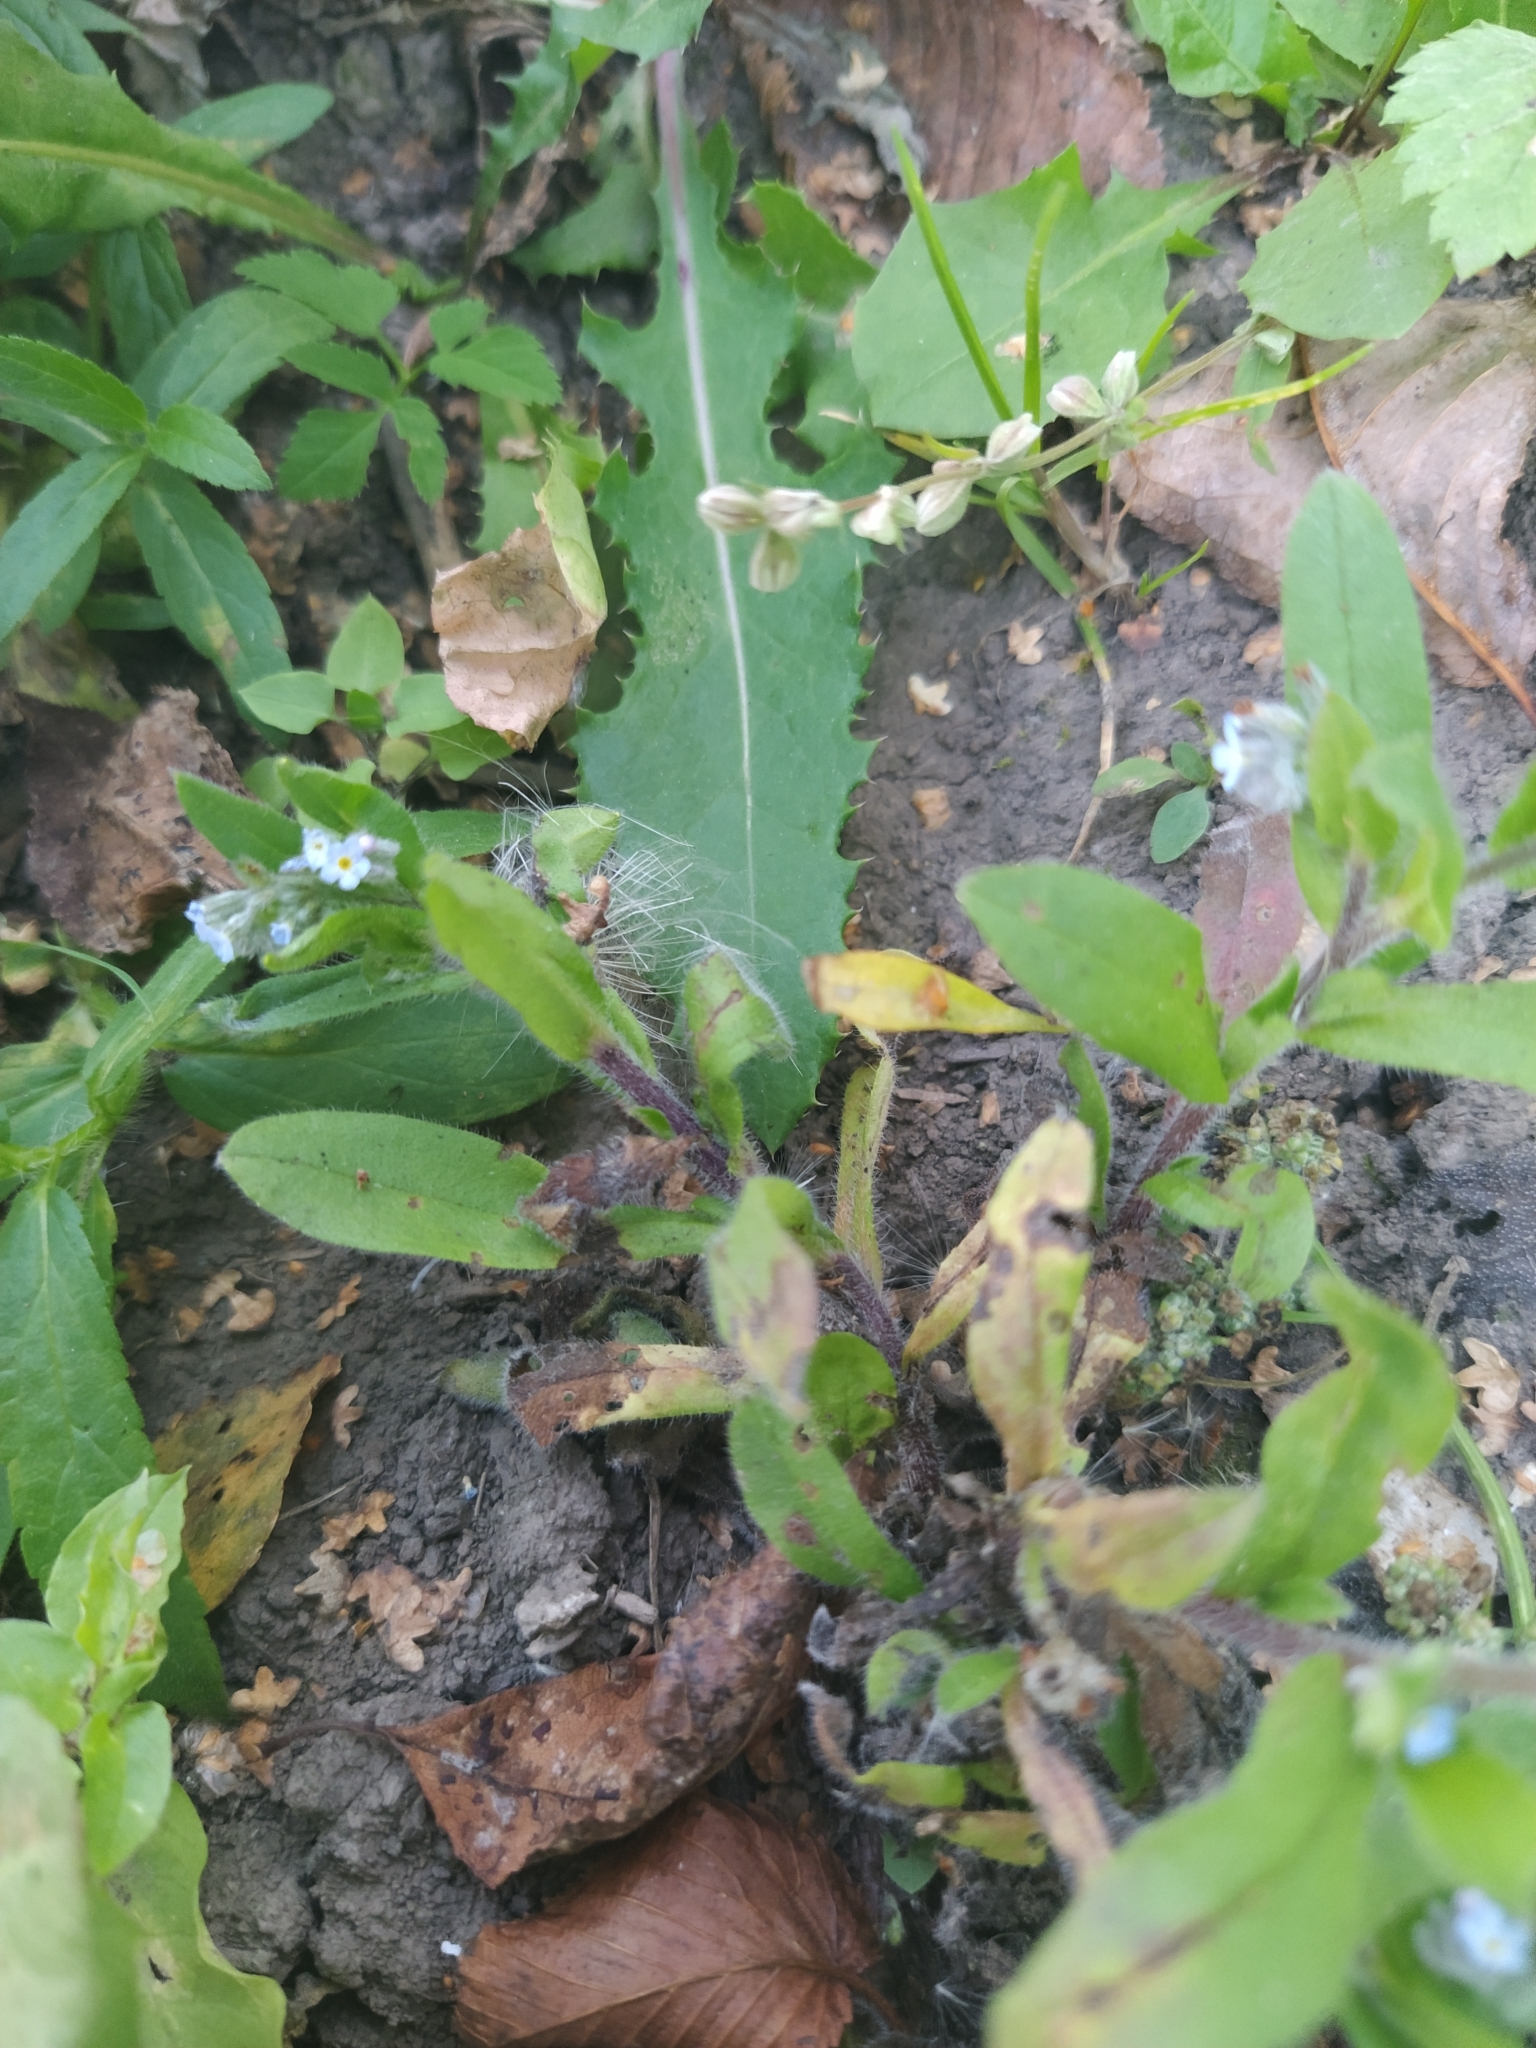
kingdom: Plantae
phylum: Tracheophyta
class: Magnoliopsida
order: Boraginales
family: Boraginaceae
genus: Myosotis
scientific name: Myosotis arvensis
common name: Field forget-me-not
